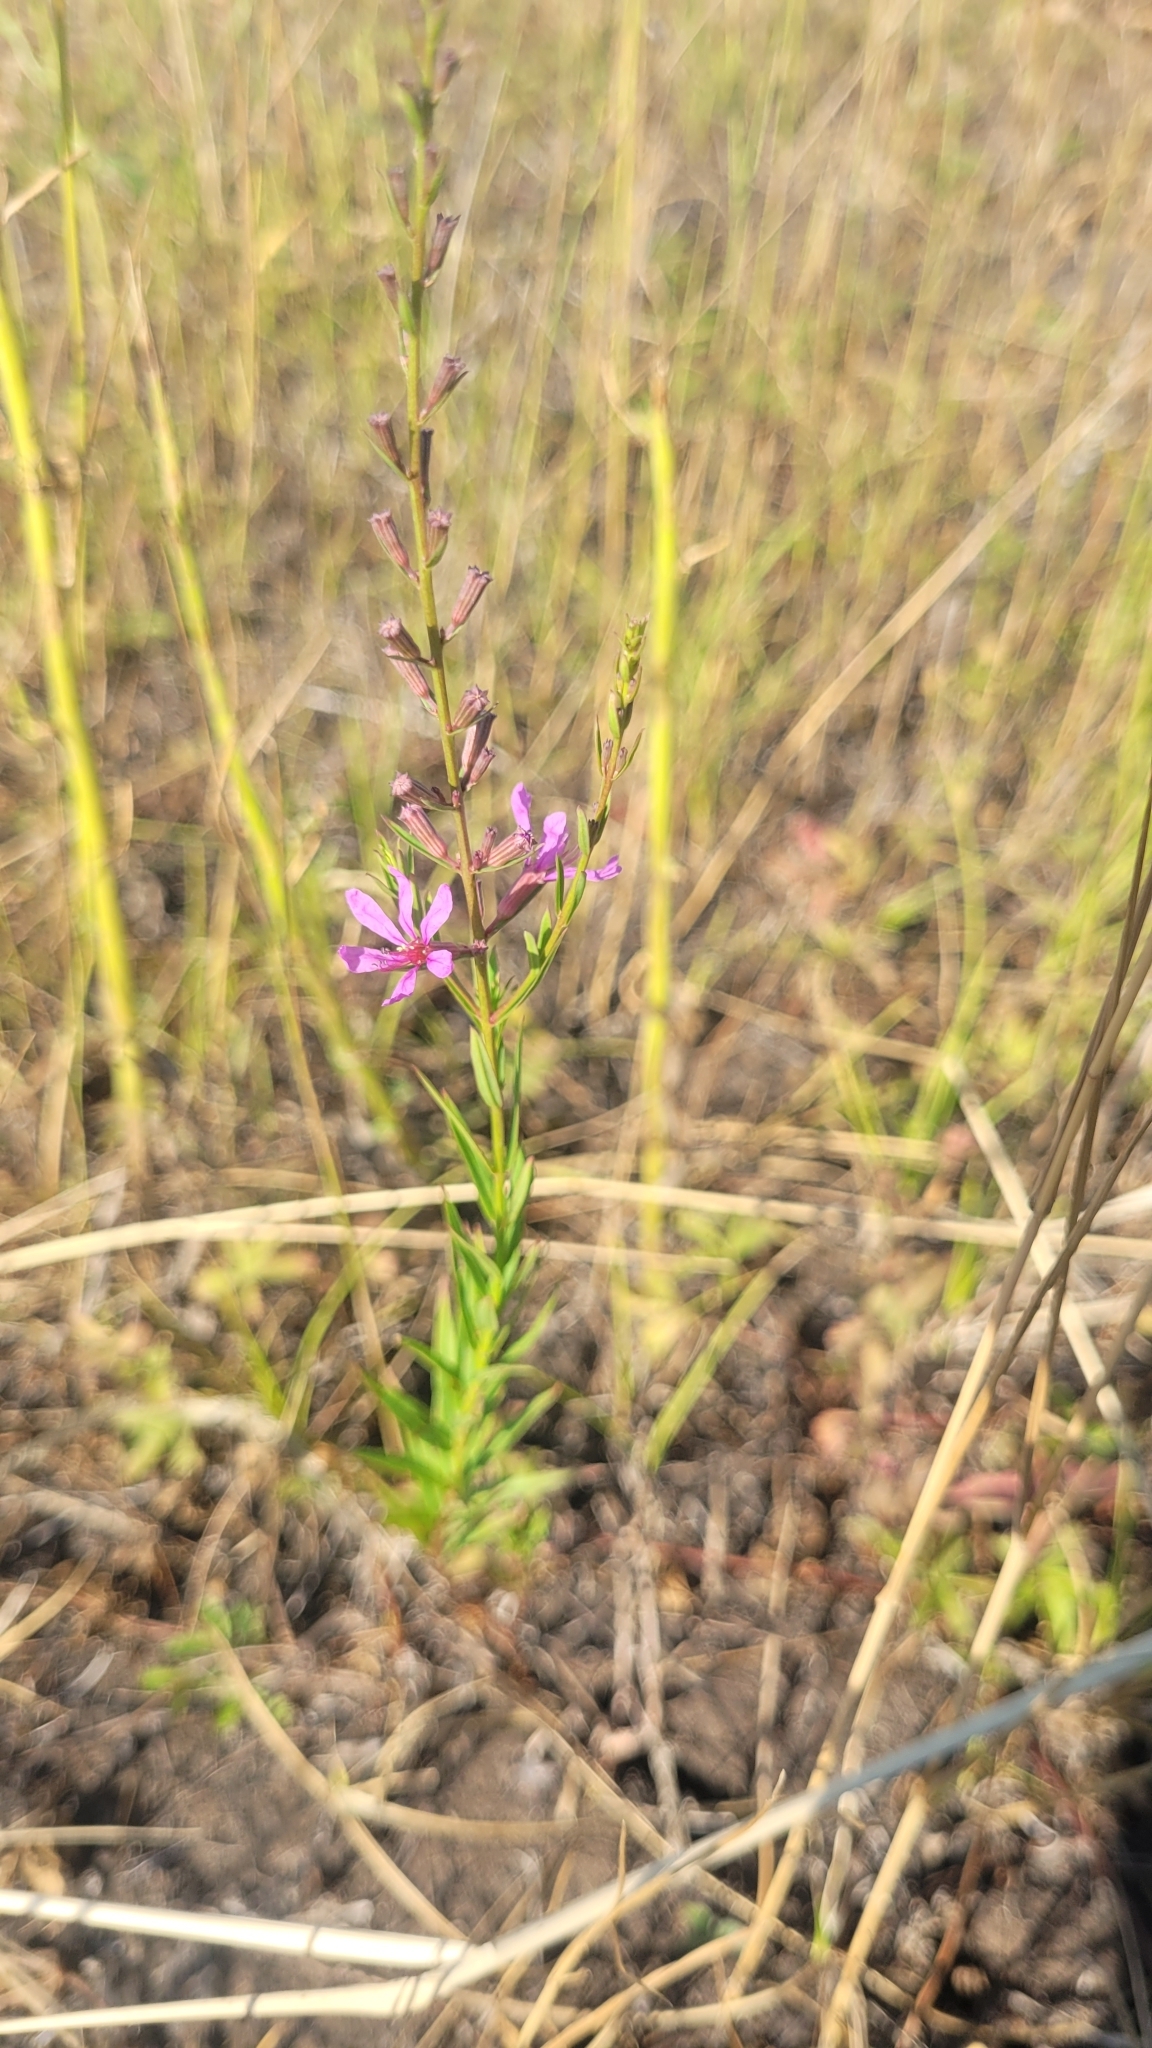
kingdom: Plantae
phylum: Tracheophyta
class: Magnoliopsida
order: Myrtales
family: Lythraceae
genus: Lythrum
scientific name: Lythrum virgatum
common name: European wand loosestrife
